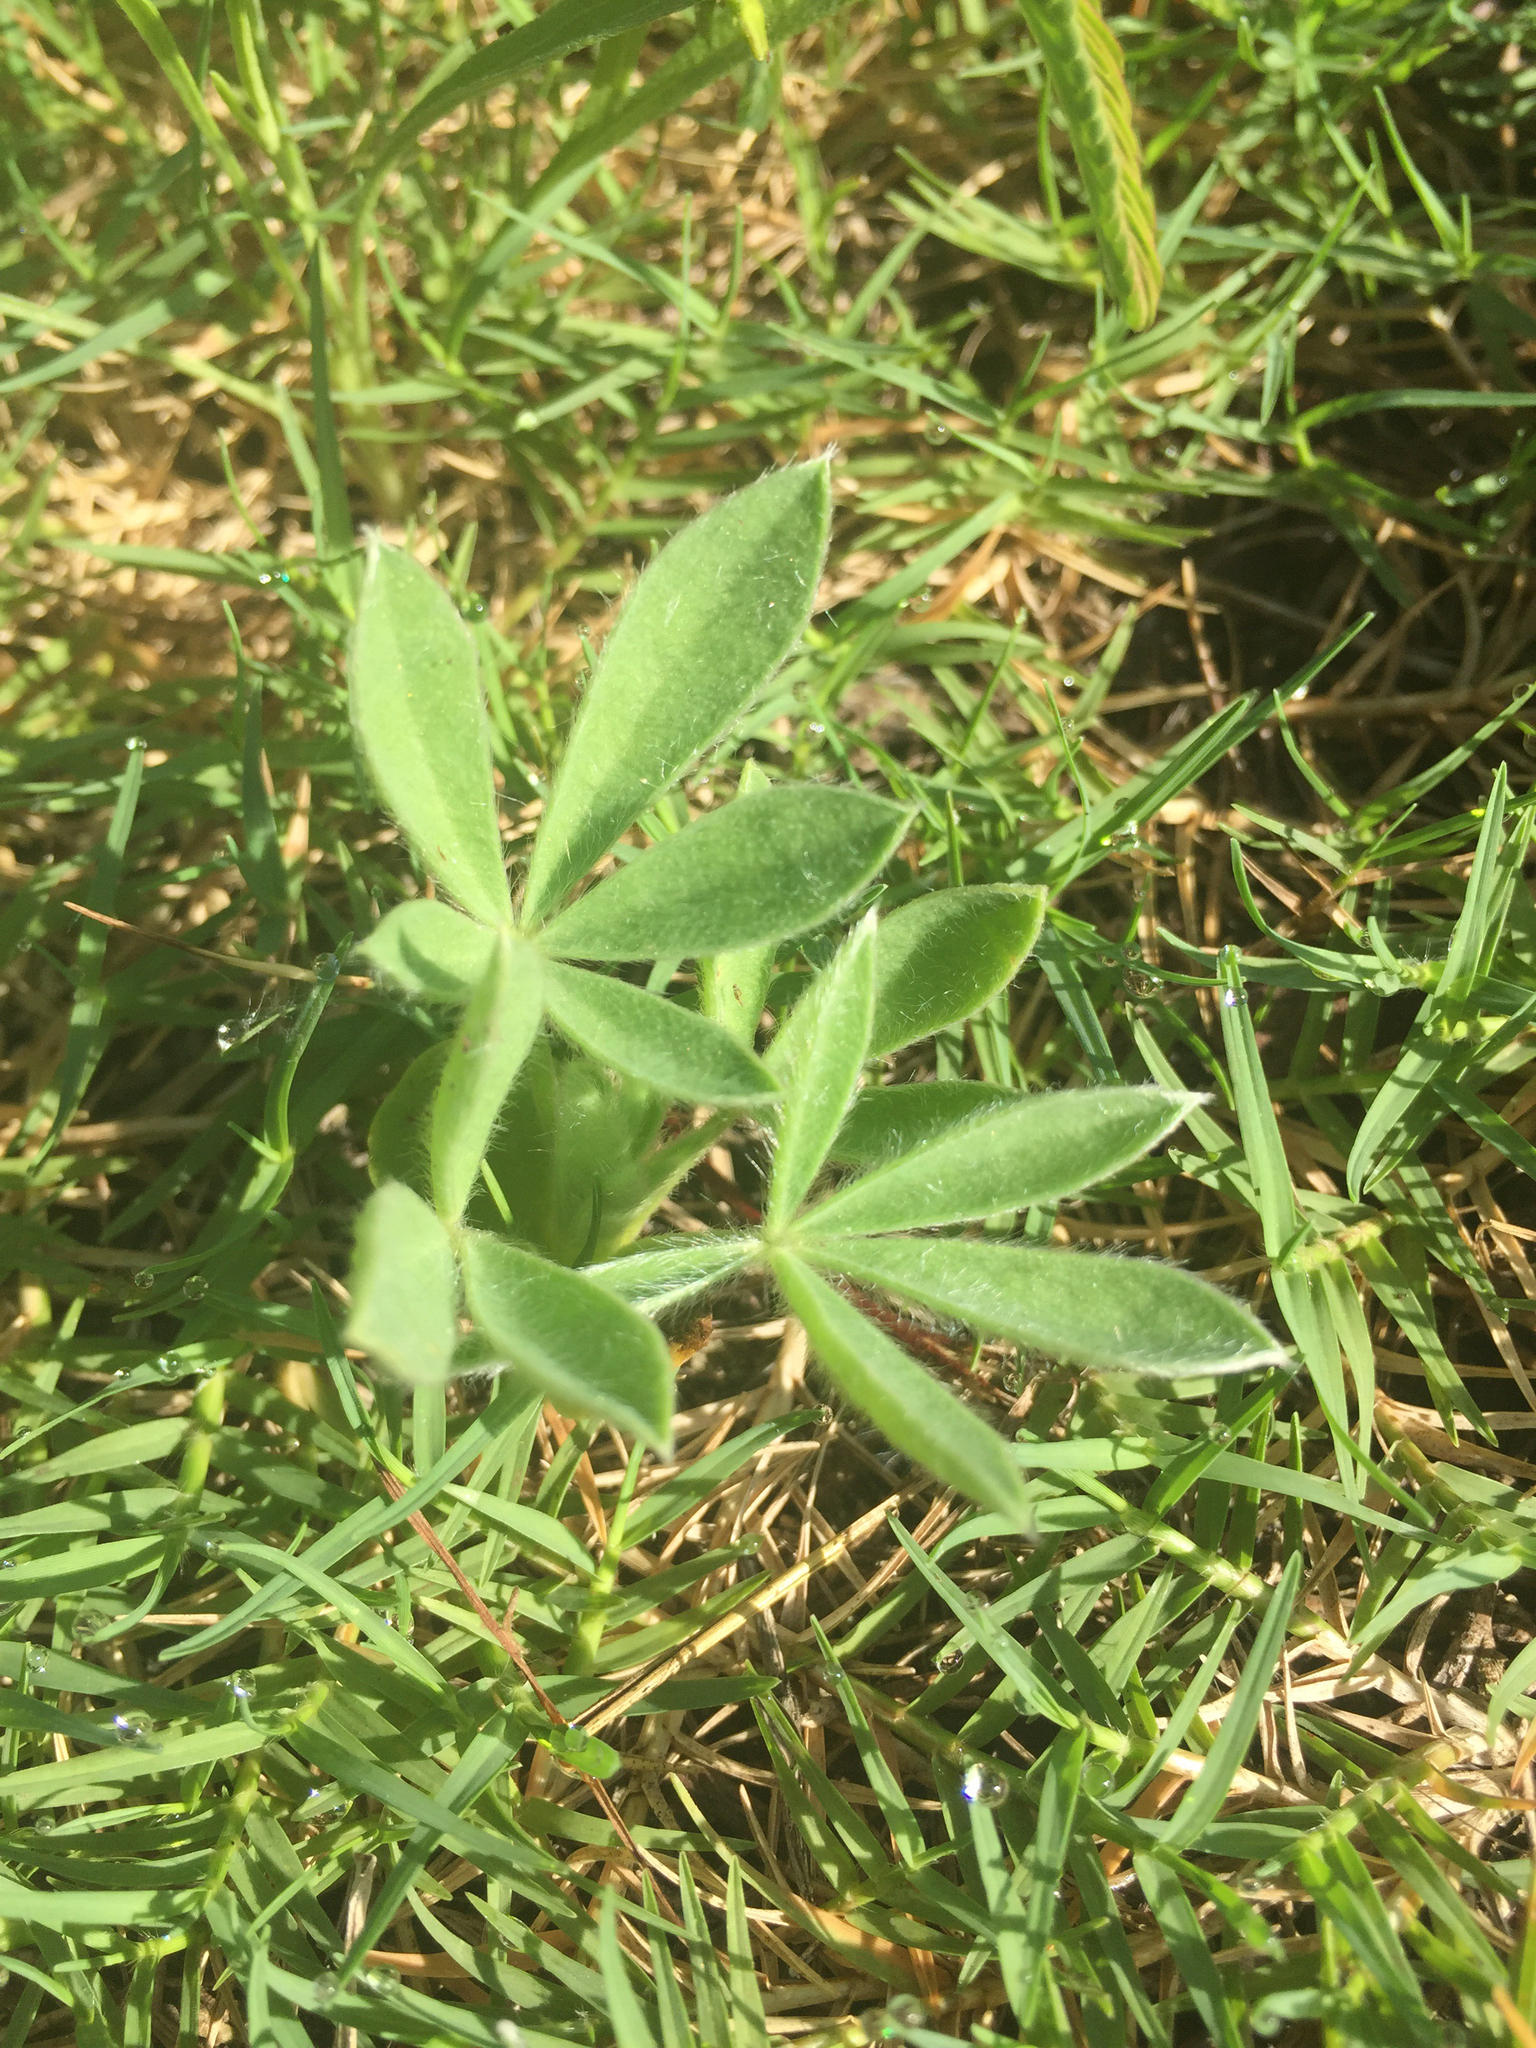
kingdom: Plantae
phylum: Tracheophyta
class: Magnoliopsida
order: Fabales
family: Fabaceae
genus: Lupinus
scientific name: Lupinus texensis
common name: Texas bluebonnet
